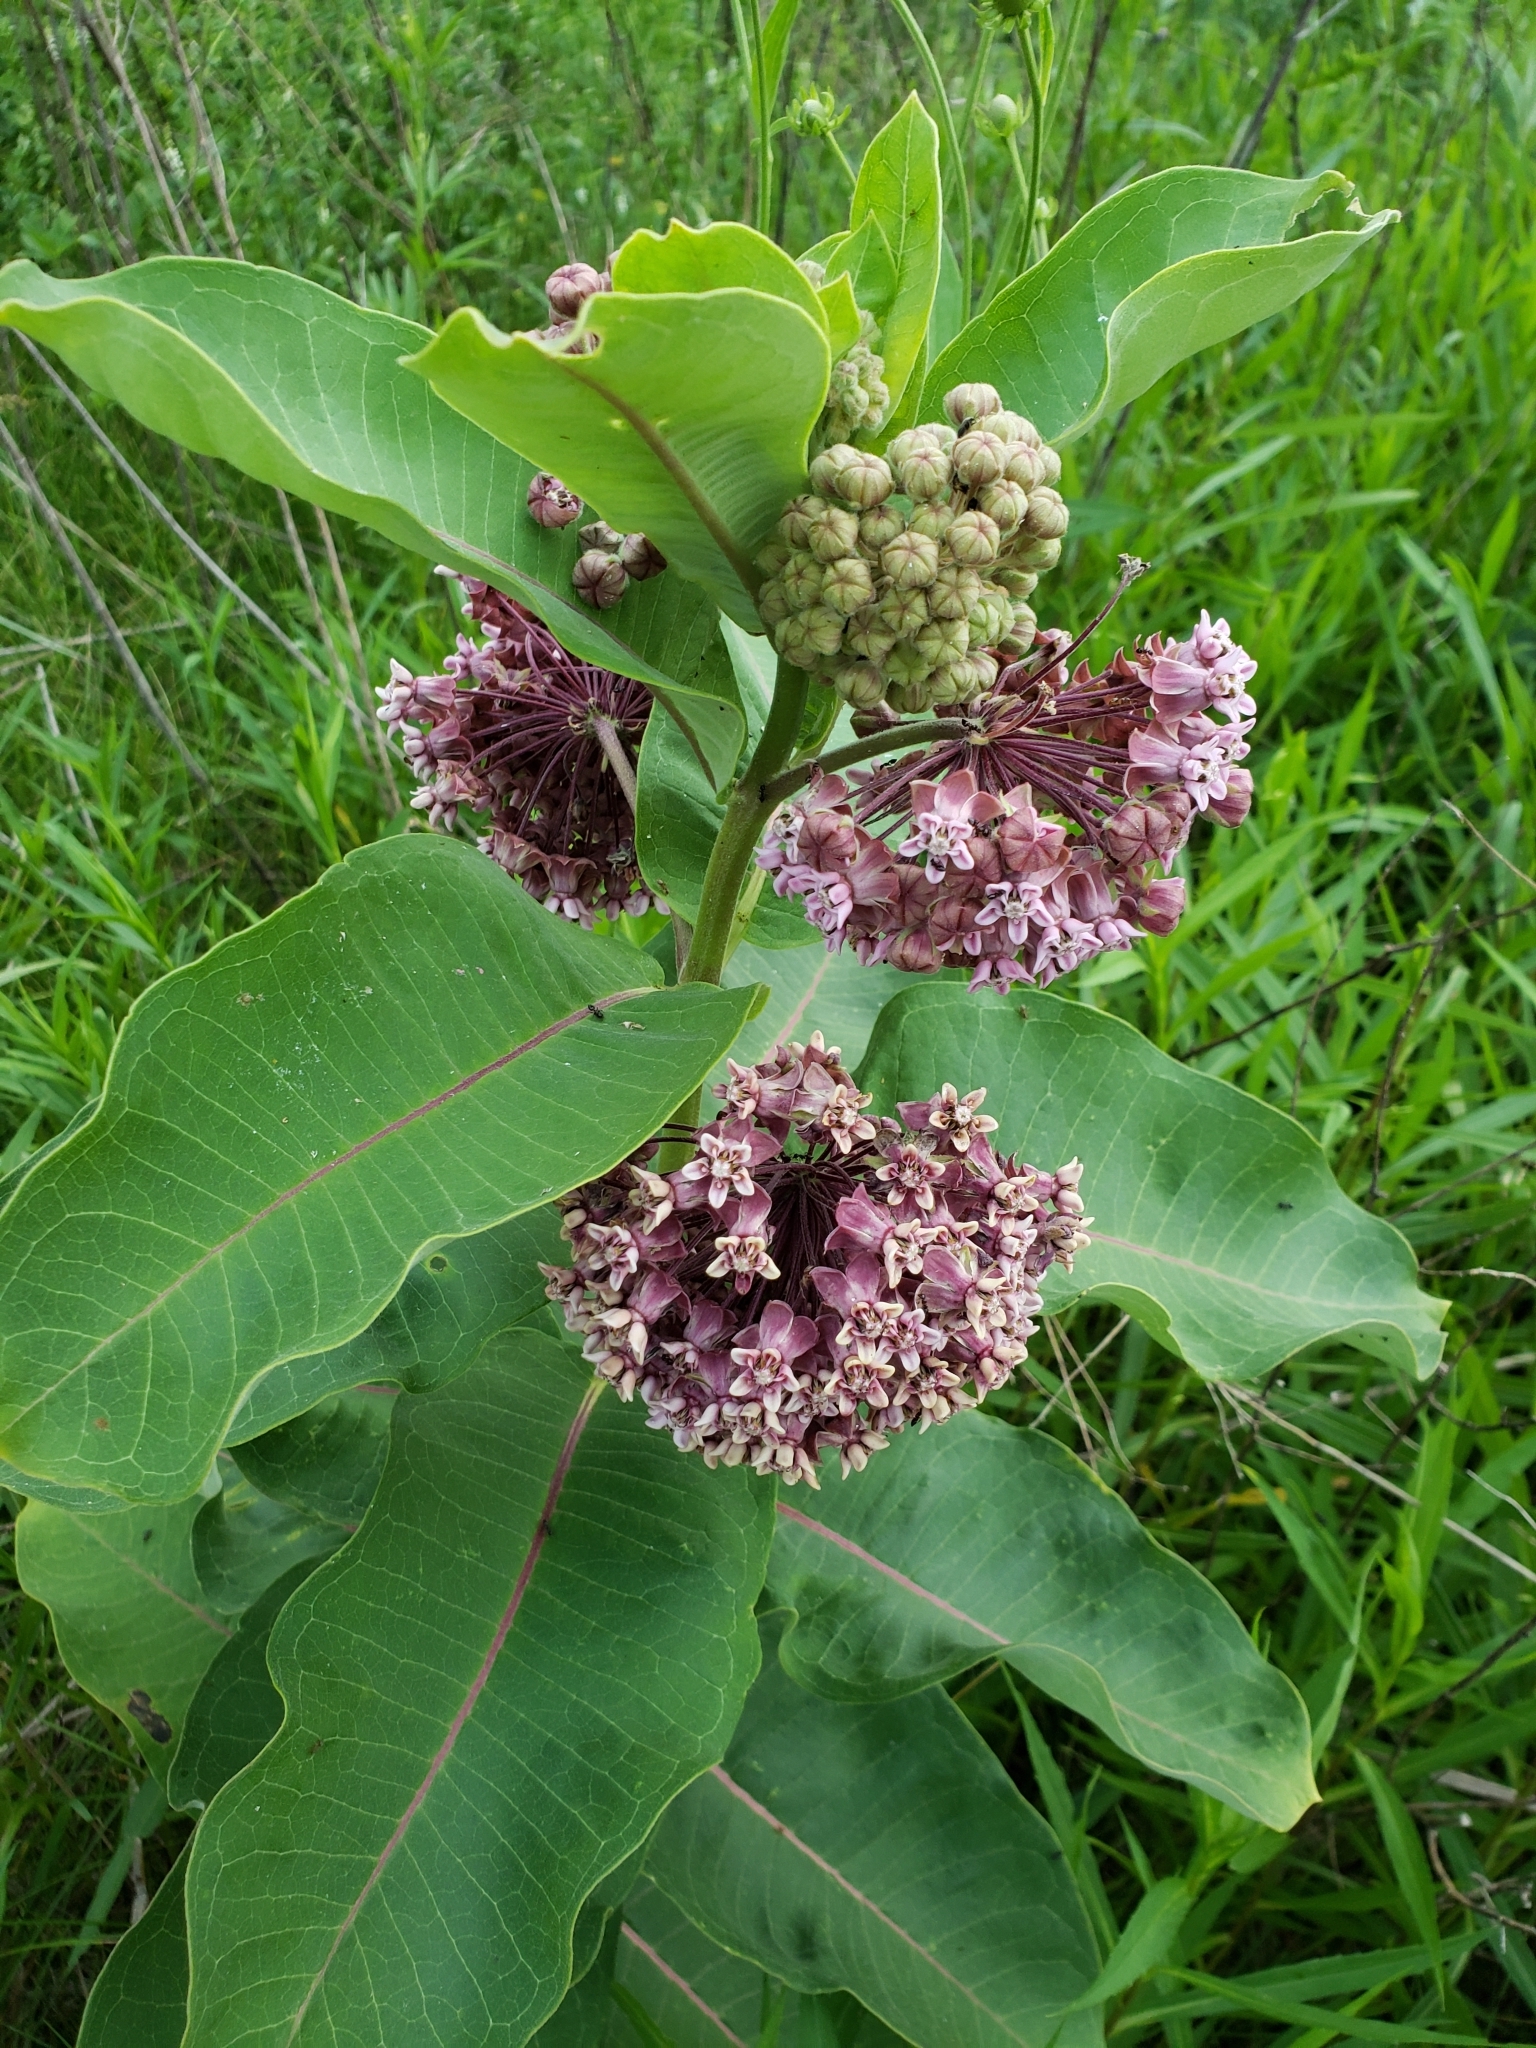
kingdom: Plantae
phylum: Tracheophyta
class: Magnoliopsida
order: Gentianales
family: Apocynaceae
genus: Asclepias
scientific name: Asclepias syriaca
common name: Common milkweed
